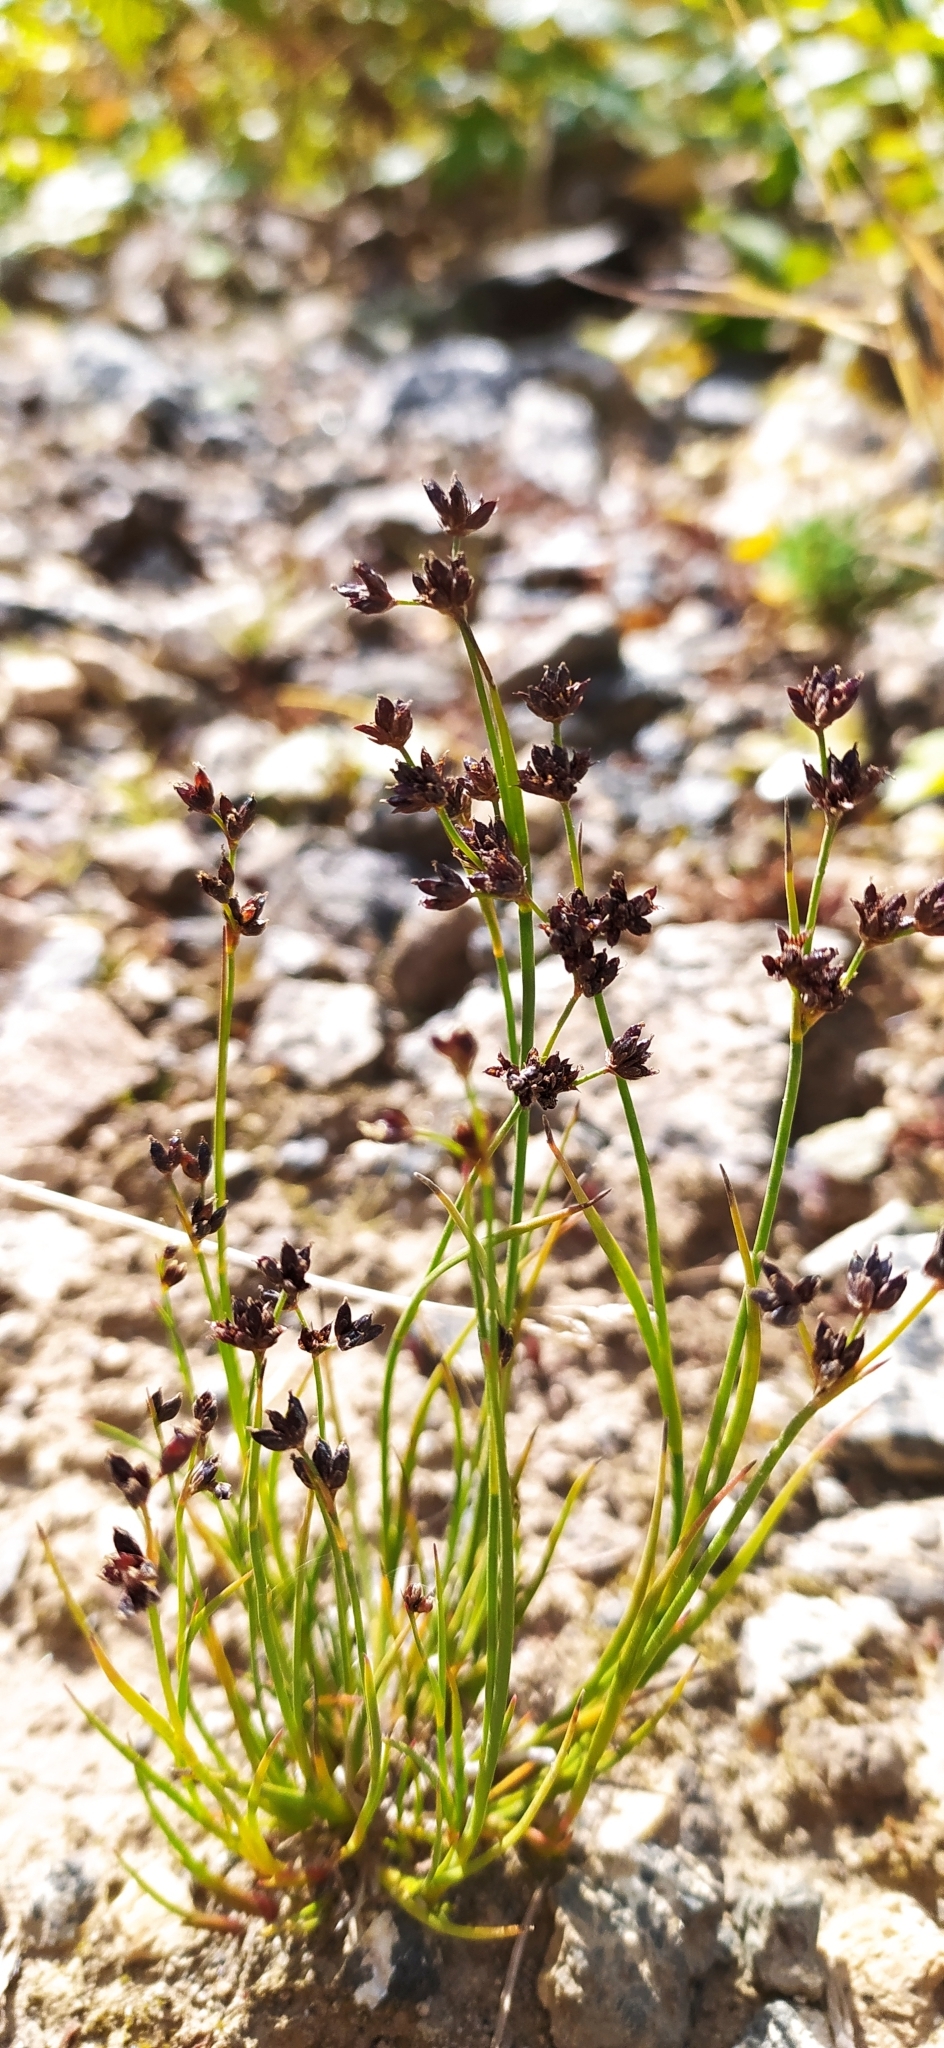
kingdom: Plantae
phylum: Tracheophyta
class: Liliopsida
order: Poales
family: Juncaceae
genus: Juncus
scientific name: Juncus alpinoarticulatus
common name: Alpine rush
